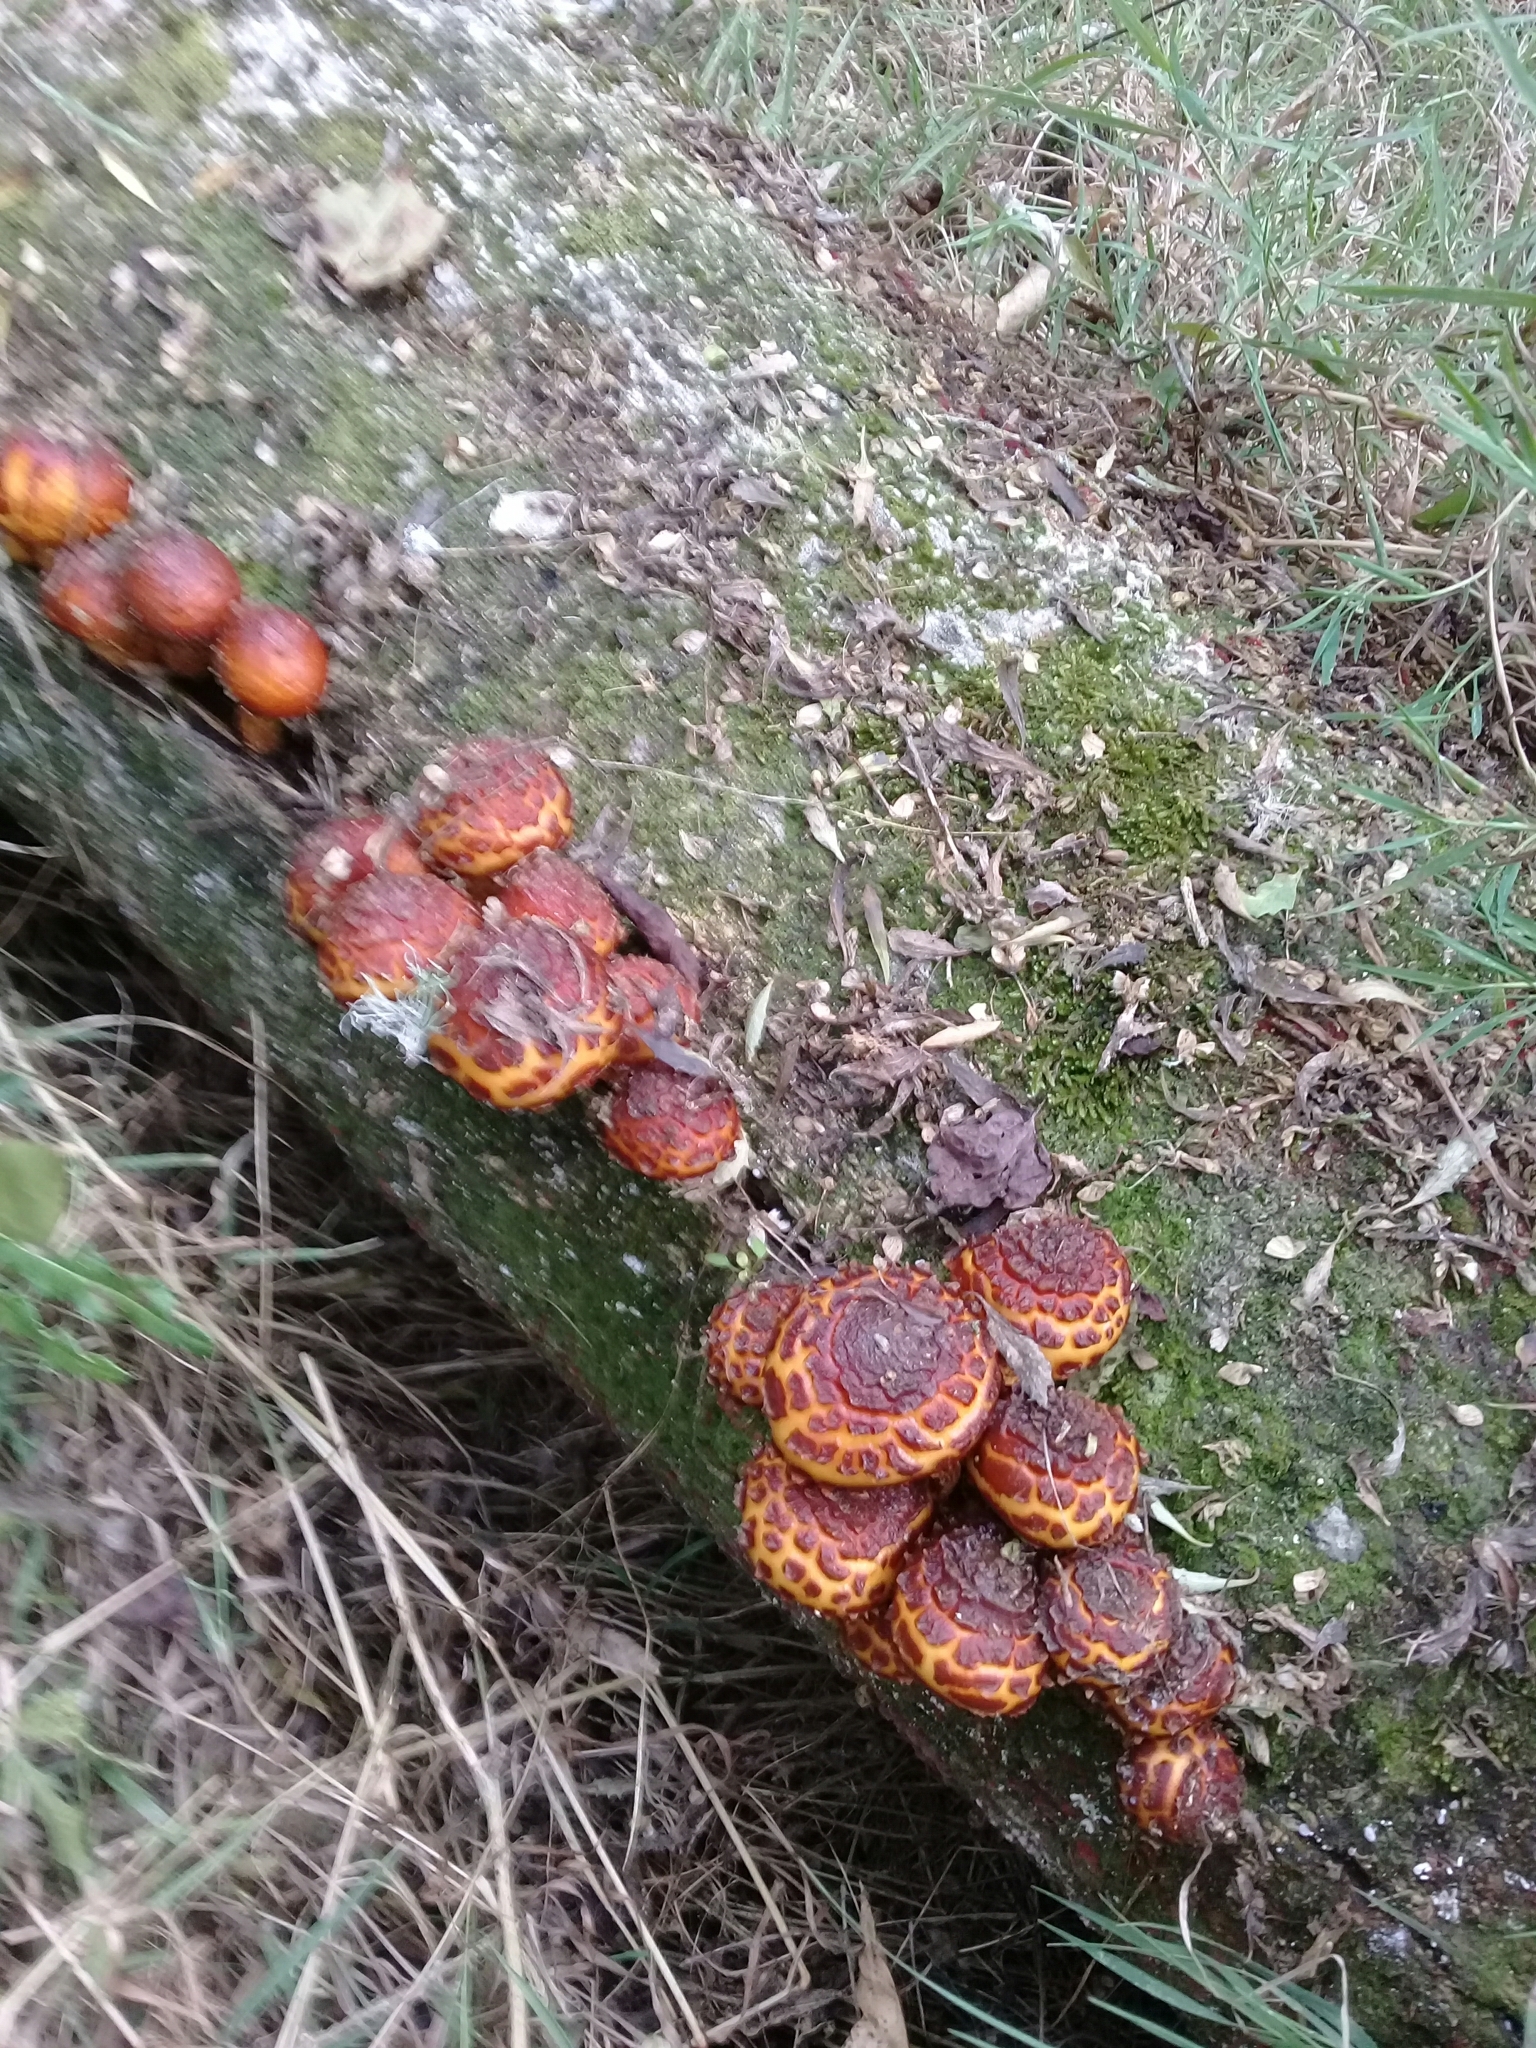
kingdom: Fungi
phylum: Basidiomycota
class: Agaricomycetes
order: Agaricales
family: Strophariaceae
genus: Pholiota
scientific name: Pholiota glutinosa
